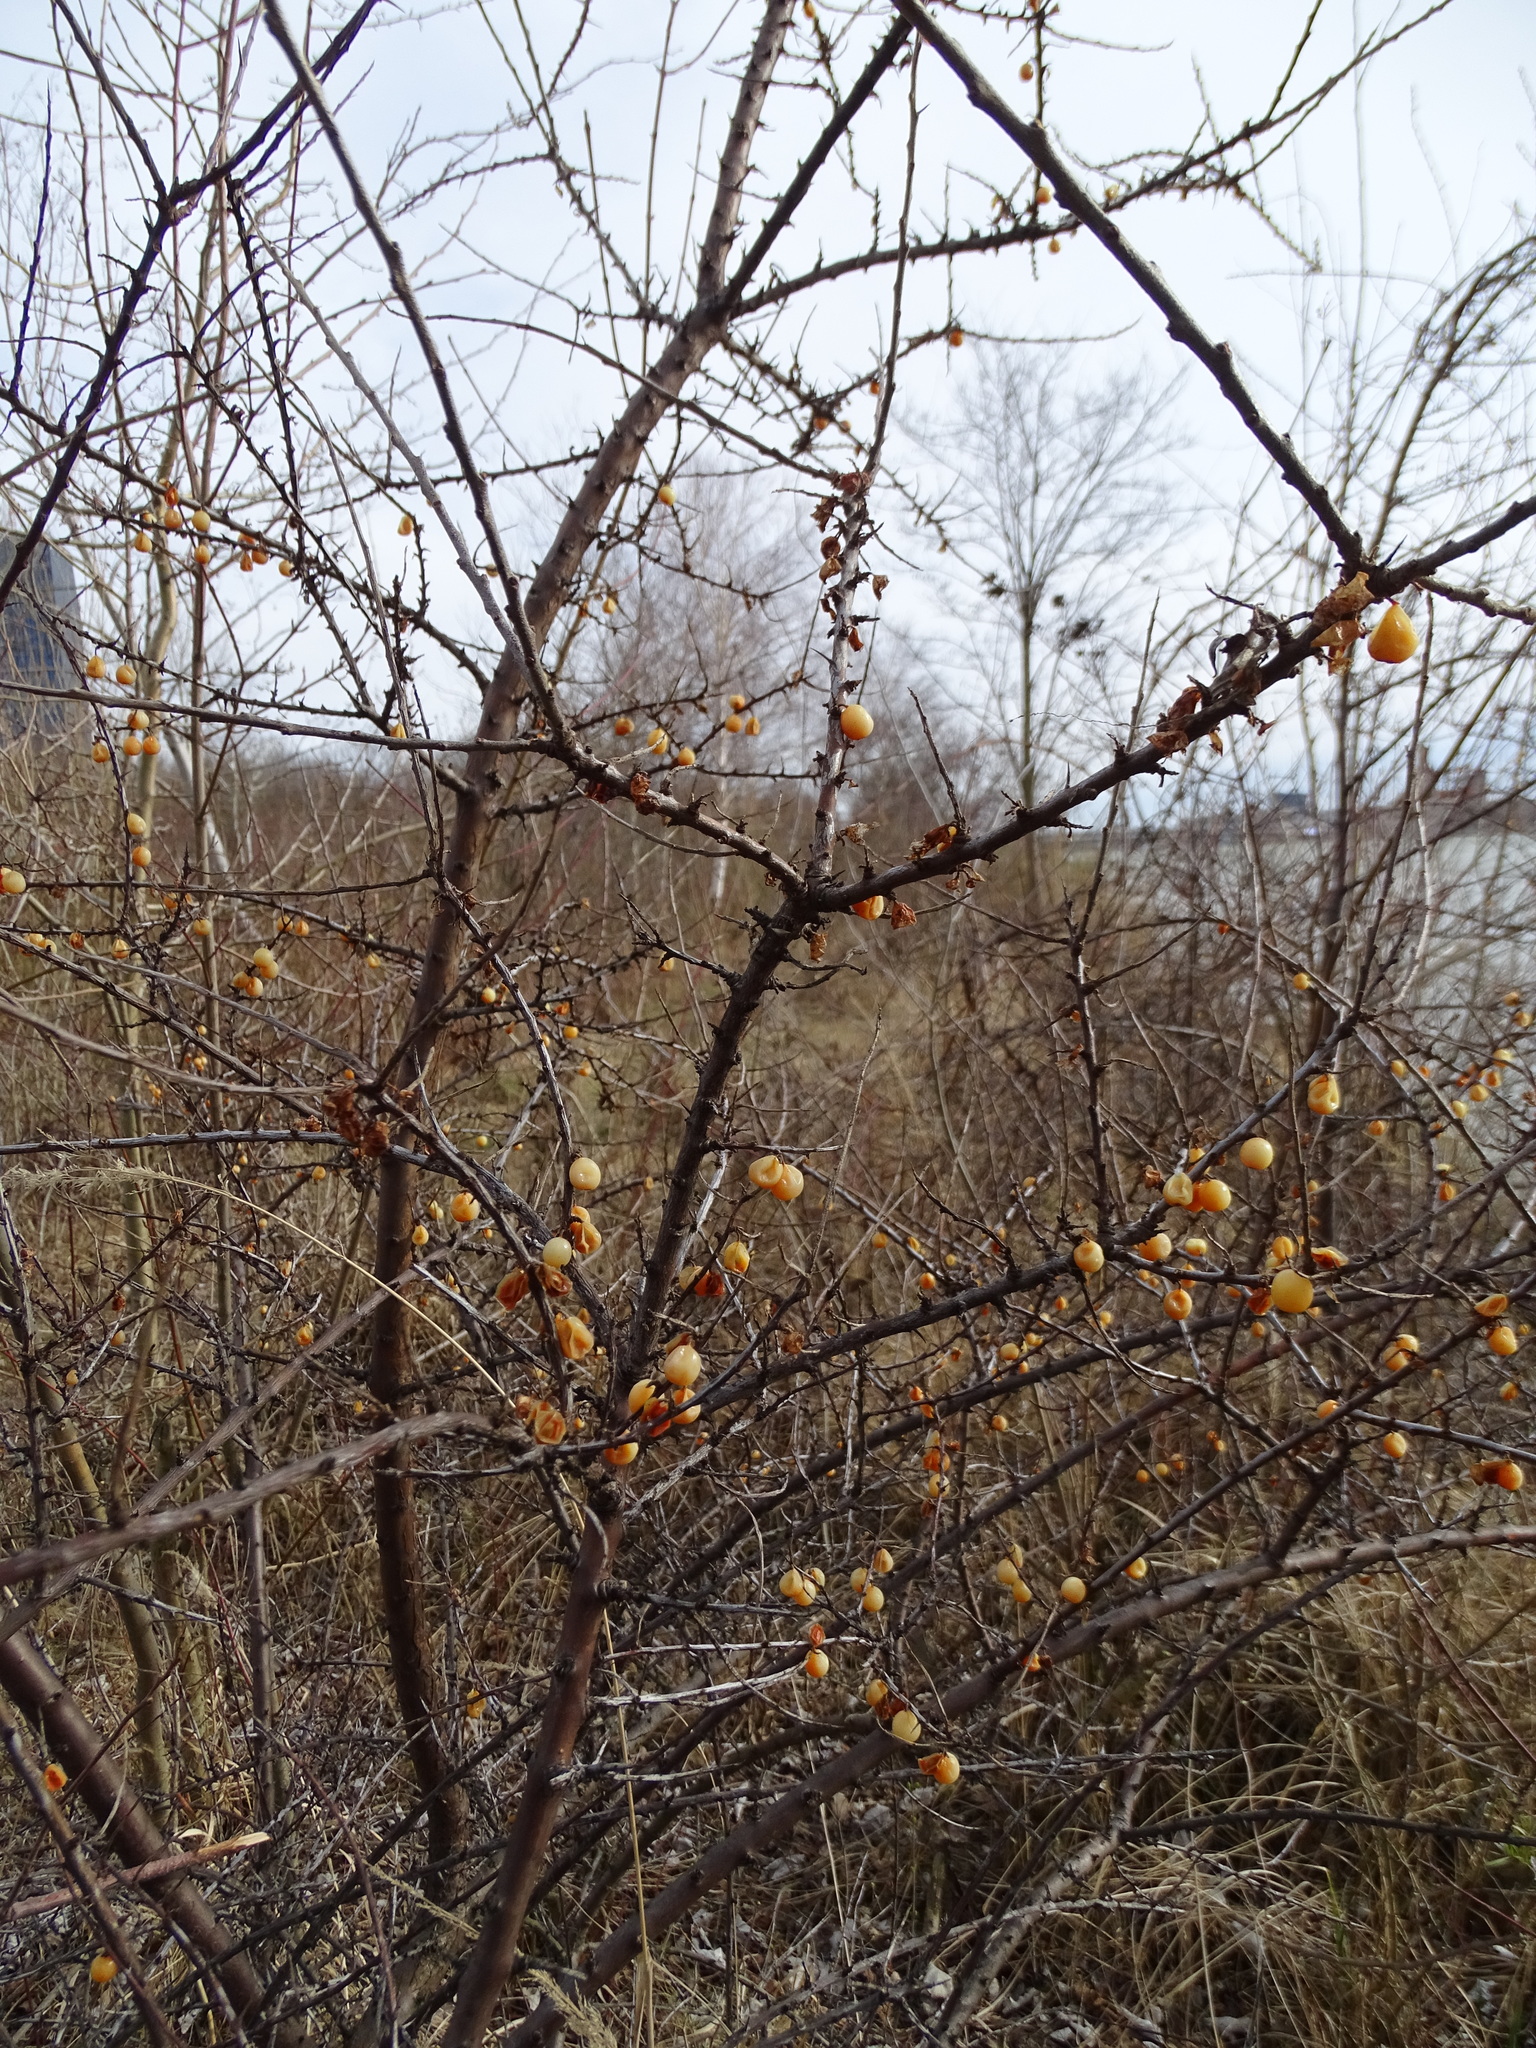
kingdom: Plantae
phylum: Tracheophyta
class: Magnoliopsida
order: Rosales
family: Elaeagnaceae
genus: Hippophae
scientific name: Hippophae rhamnoides
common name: Sea-buckthorn
